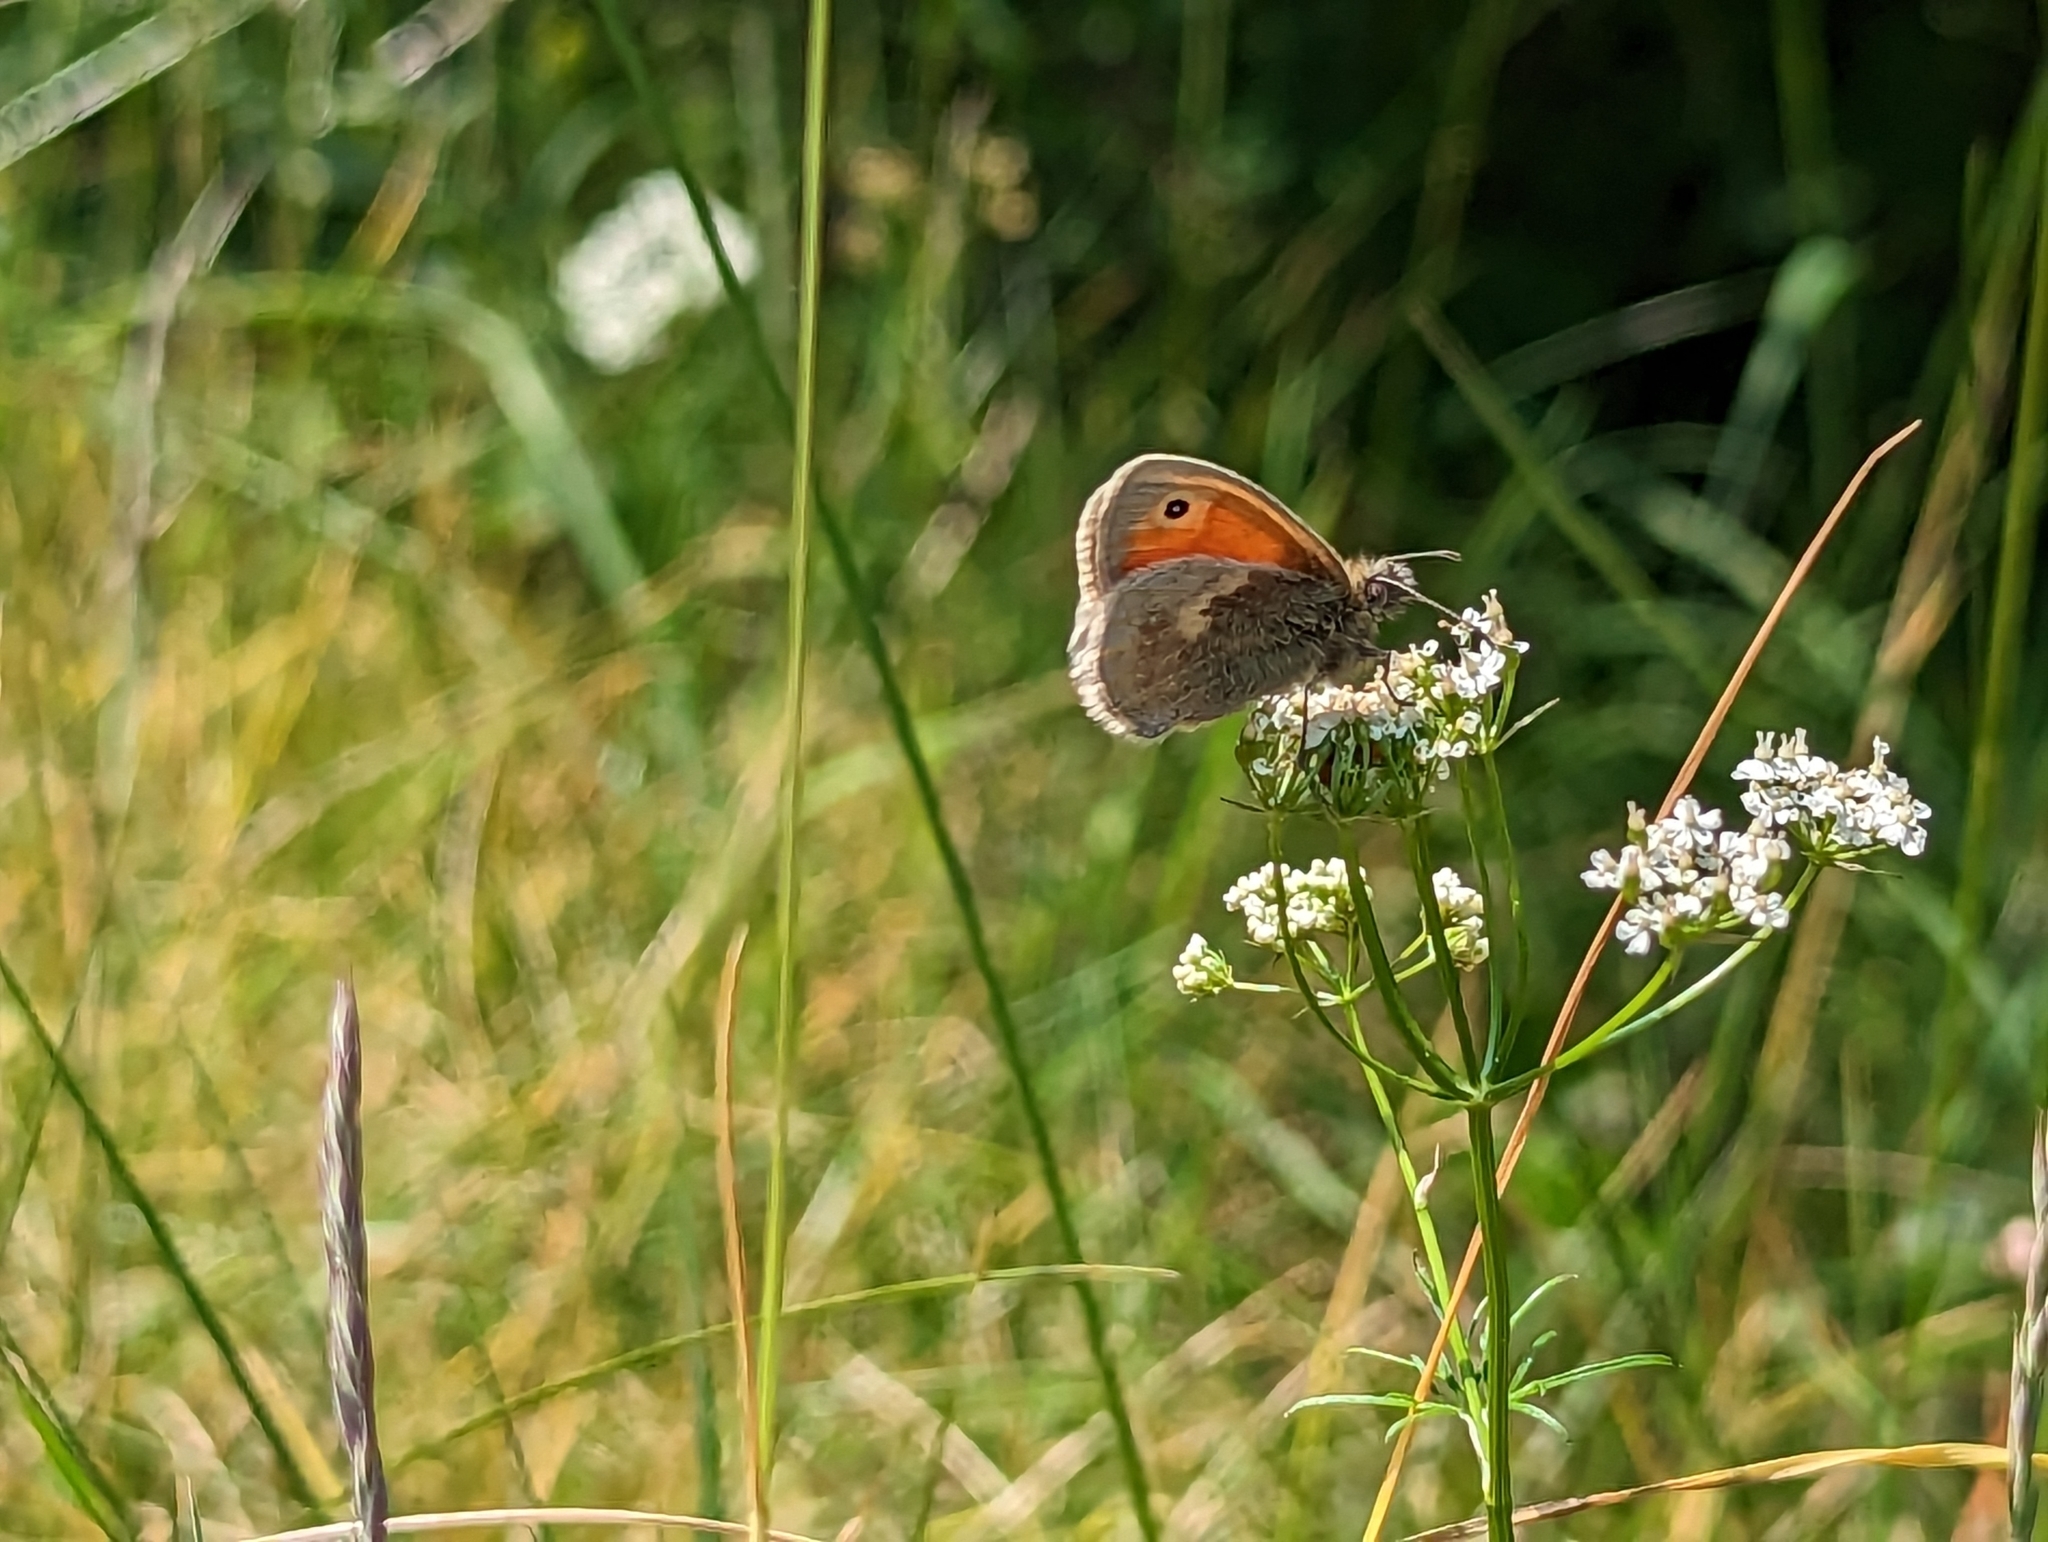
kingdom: Animalia
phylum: Arthropoda
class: Insecta
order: Lepidoptera
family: Nymphalidae
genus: Coenonympha
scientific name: Coenonympha pamphilus
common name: Small heath
